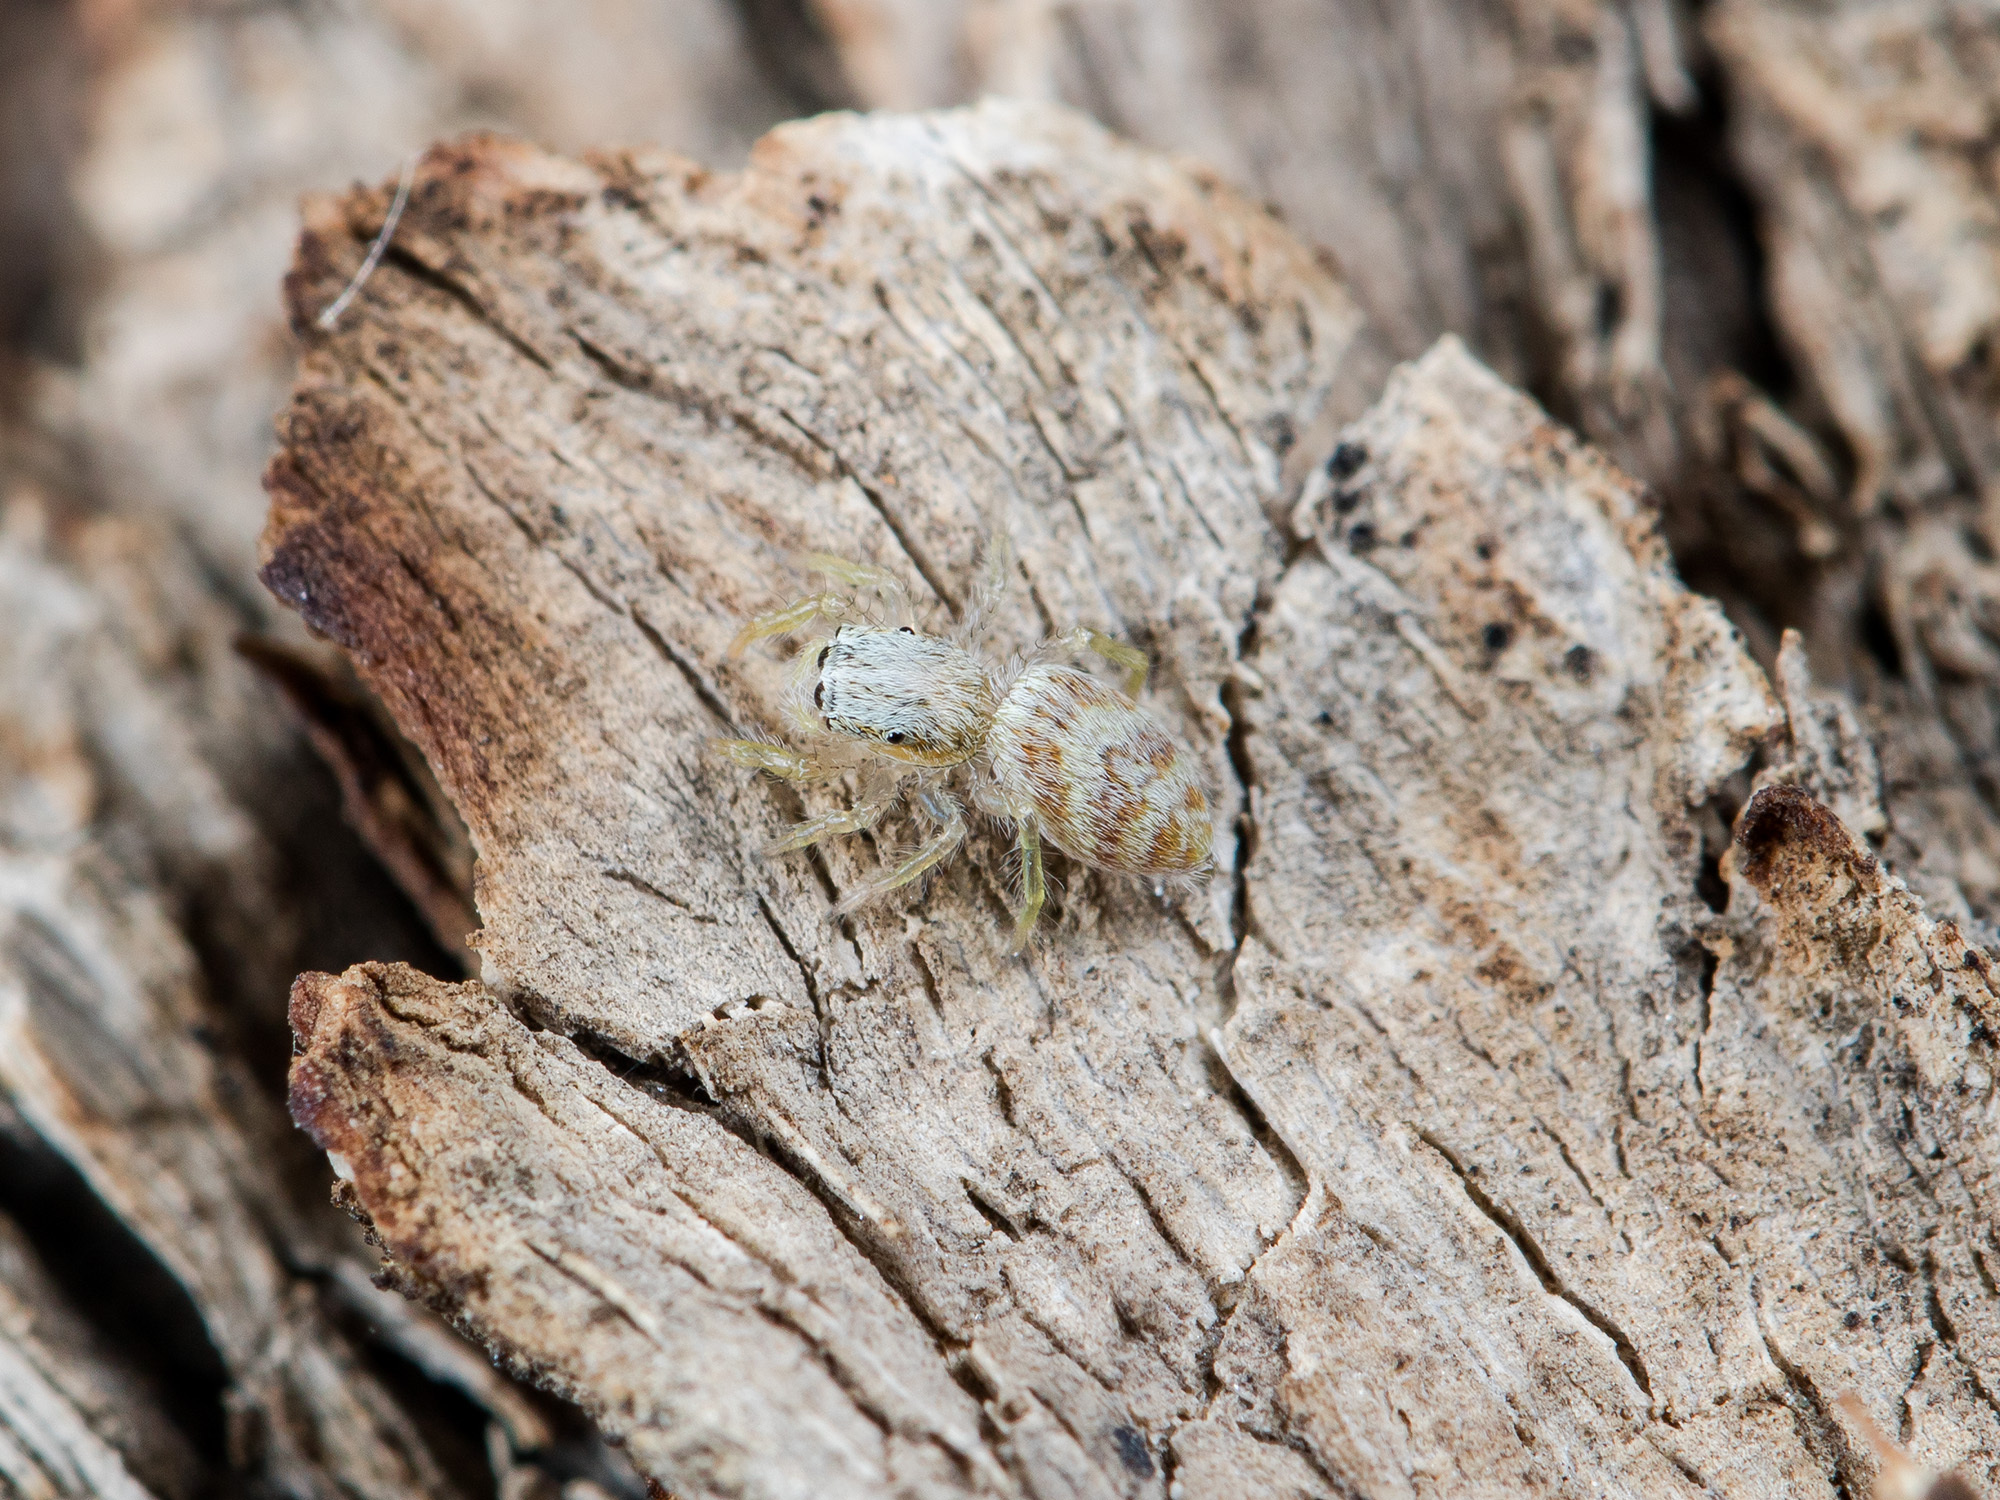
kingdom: Animalia
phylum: Arthropoda
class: Arachnida
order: Araneae
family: Salticidae
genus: Rudakius
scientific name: Rudakius cinctus
